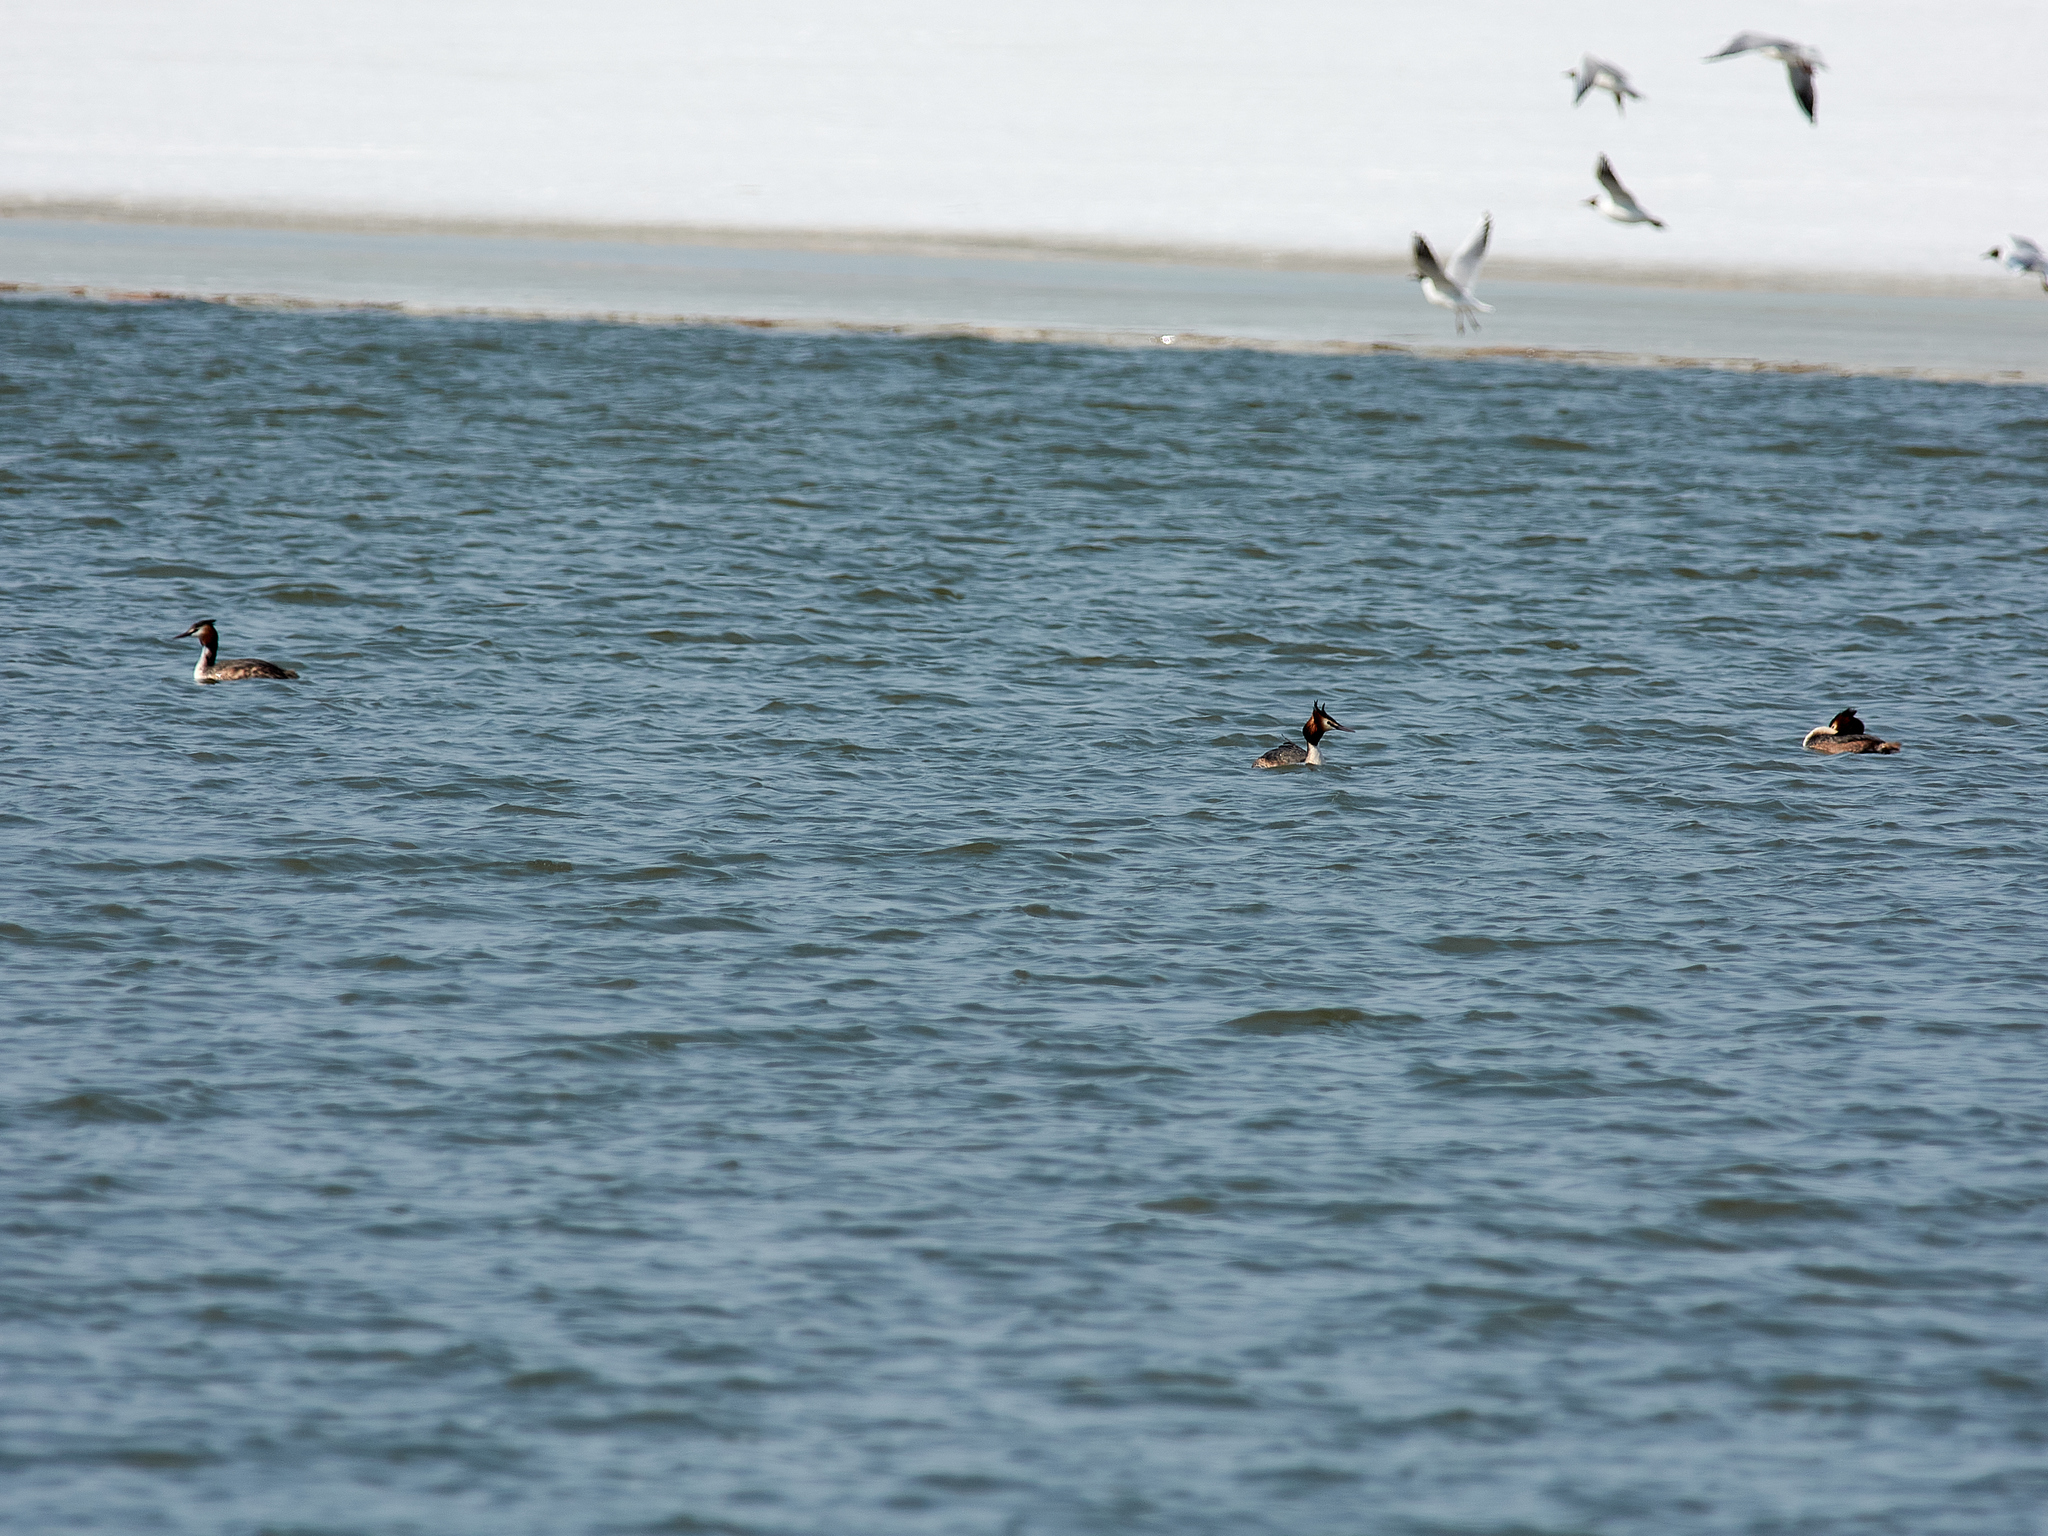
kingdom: Animalia
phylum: Chordata
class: Aves
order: Podicipediformes
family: Podicipedidae
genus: Podiceps
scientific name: Podiceps cristatus
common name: Great crested grebe
